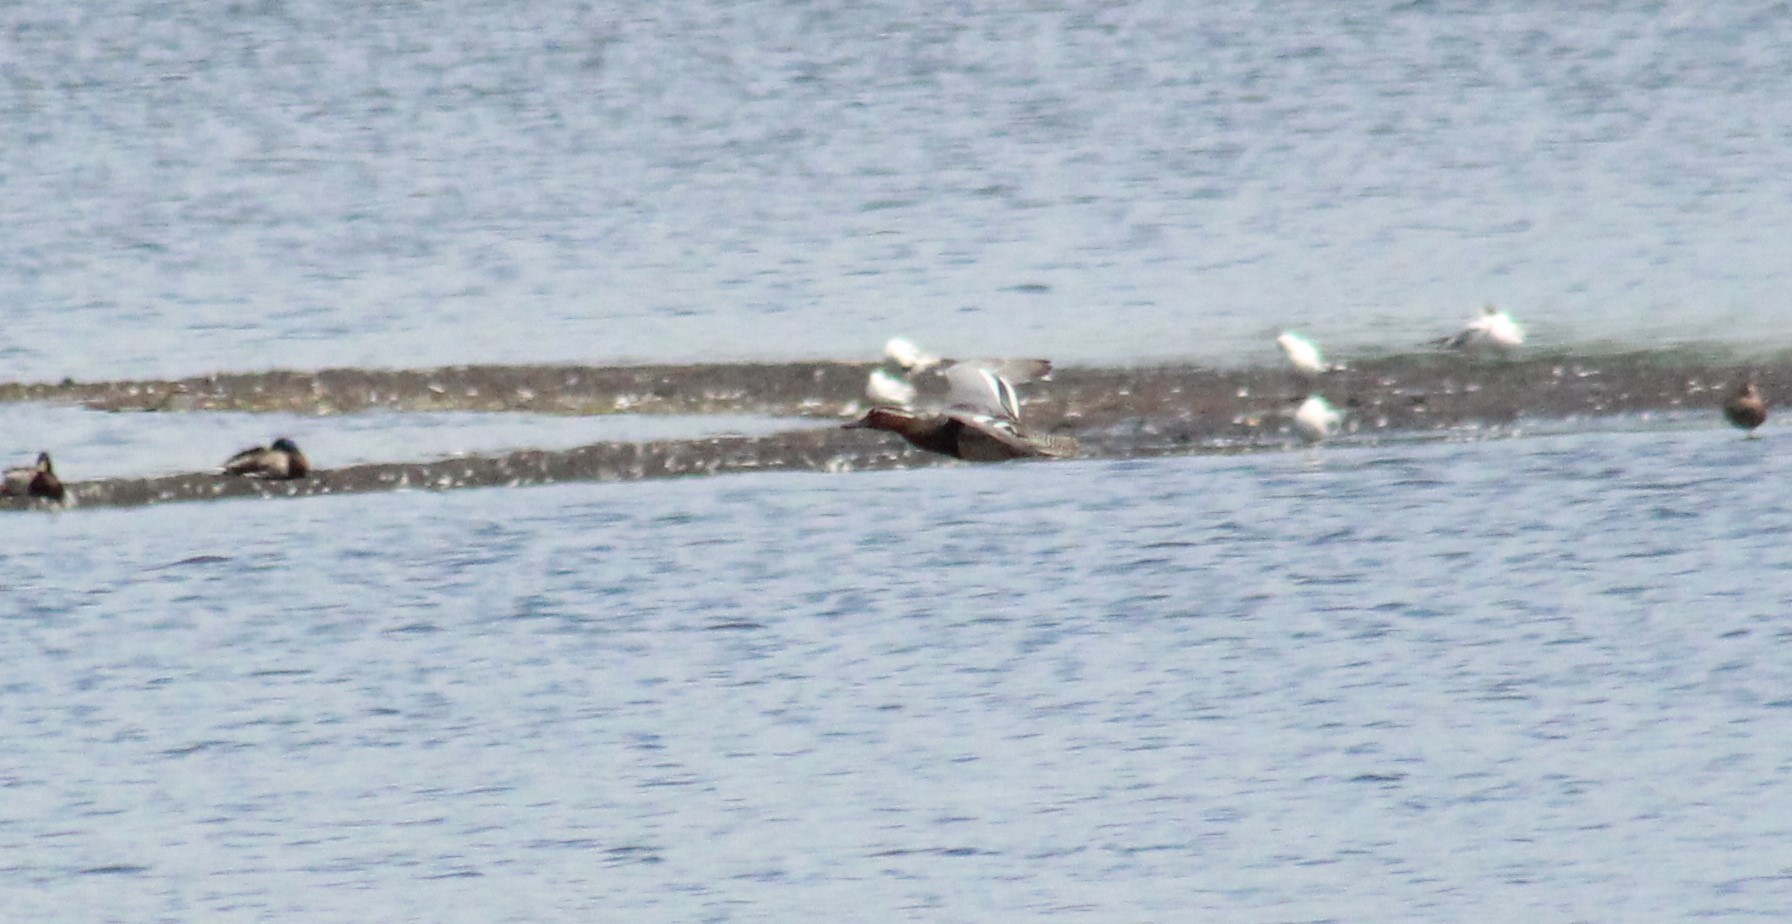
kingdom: Animalia
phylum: Chordata
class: Aves
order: Anseriformes
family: Anatidae
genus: Spatula
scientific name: Spatula querquedula
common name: Garganey
